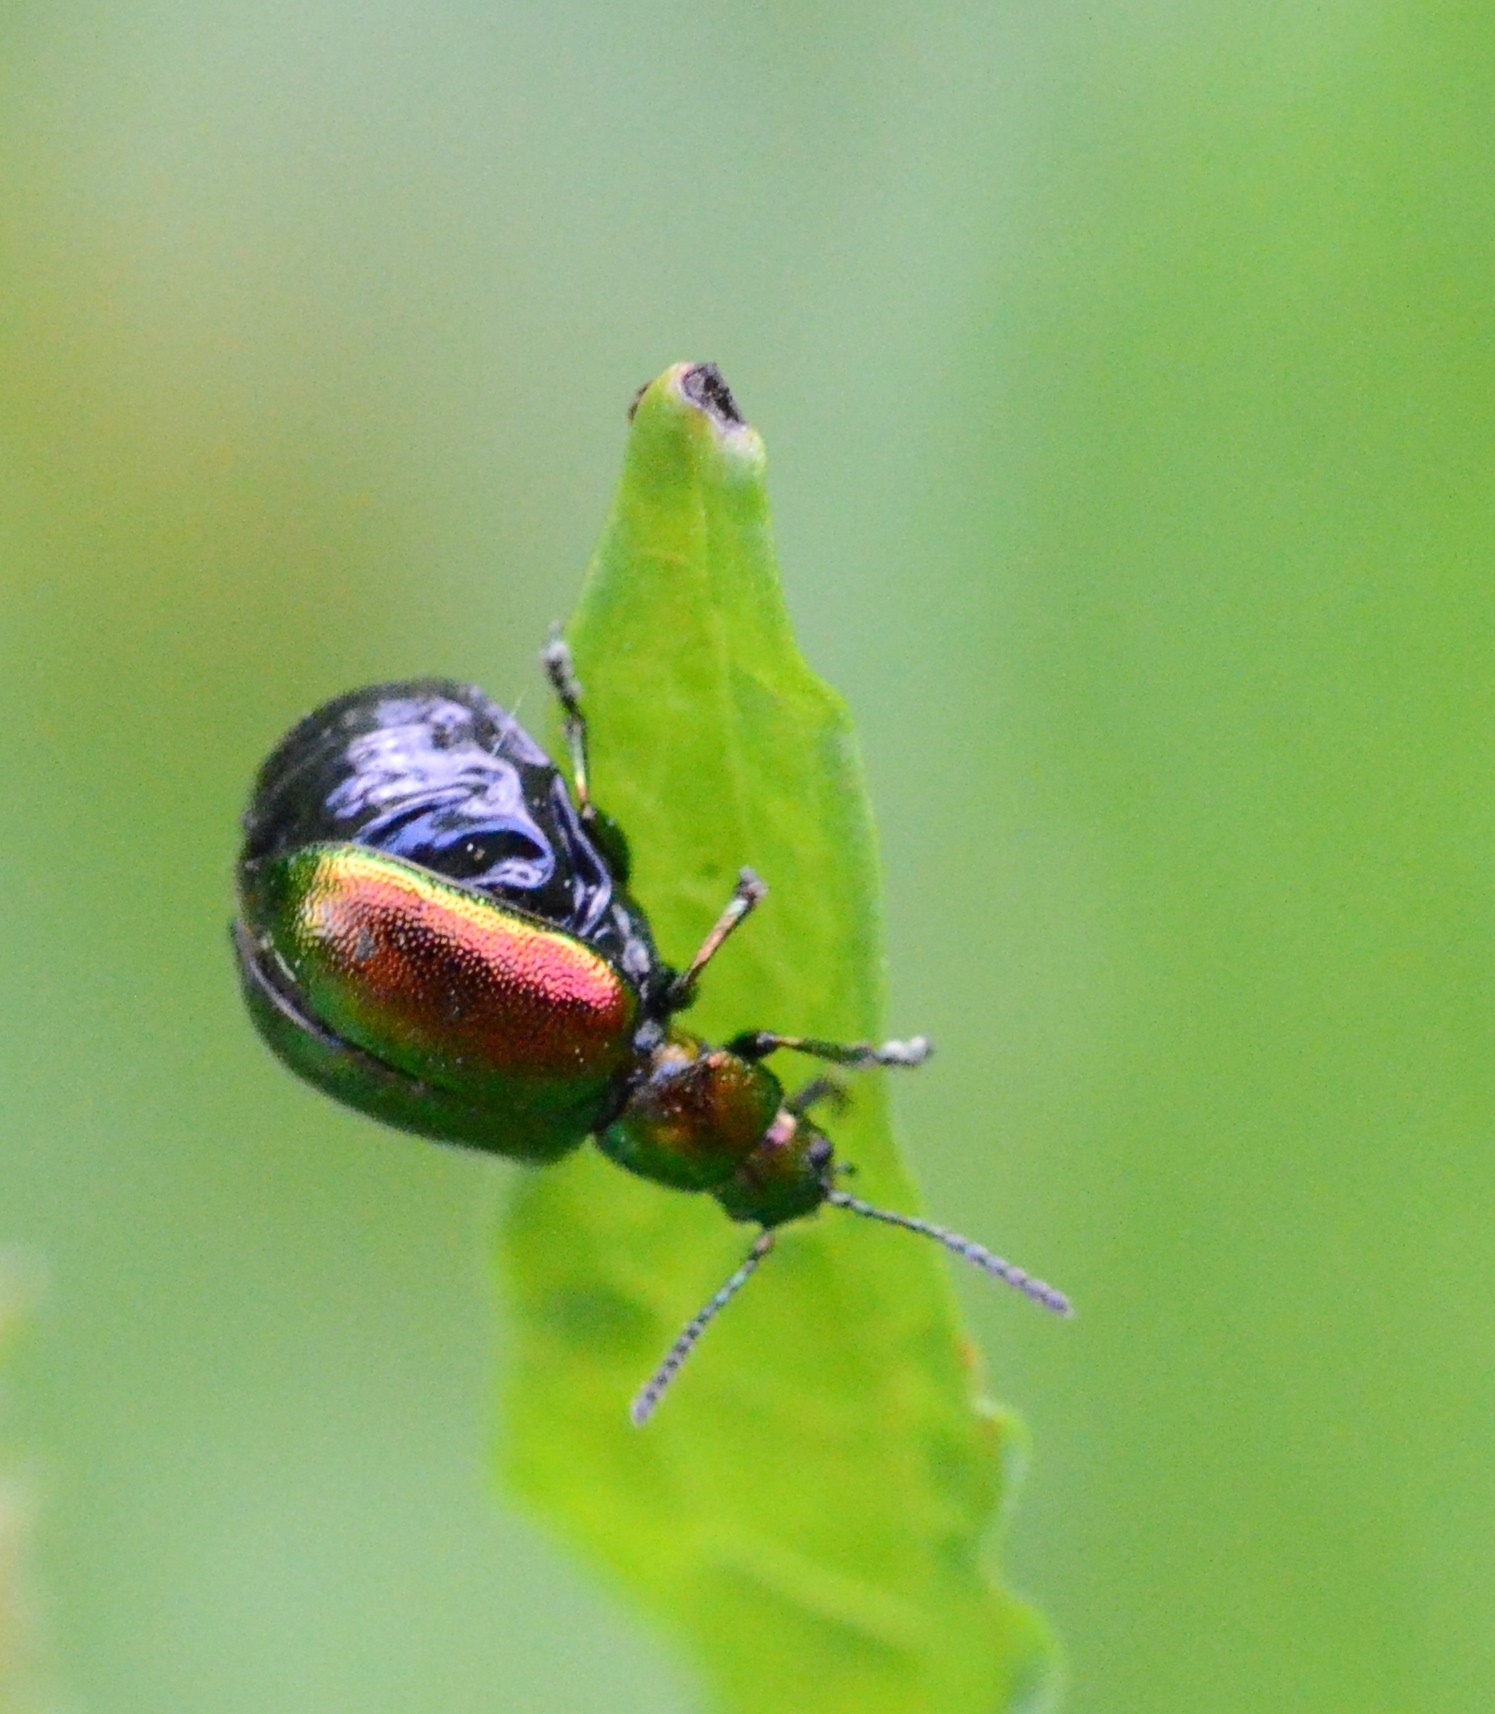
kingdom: Animalia
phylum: Arthropoda
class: Insecta
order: Coleoptera
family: Chrysomelidae
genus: Gastrophysa
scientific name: Gastrophysa viridula
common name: Green dock beetle
